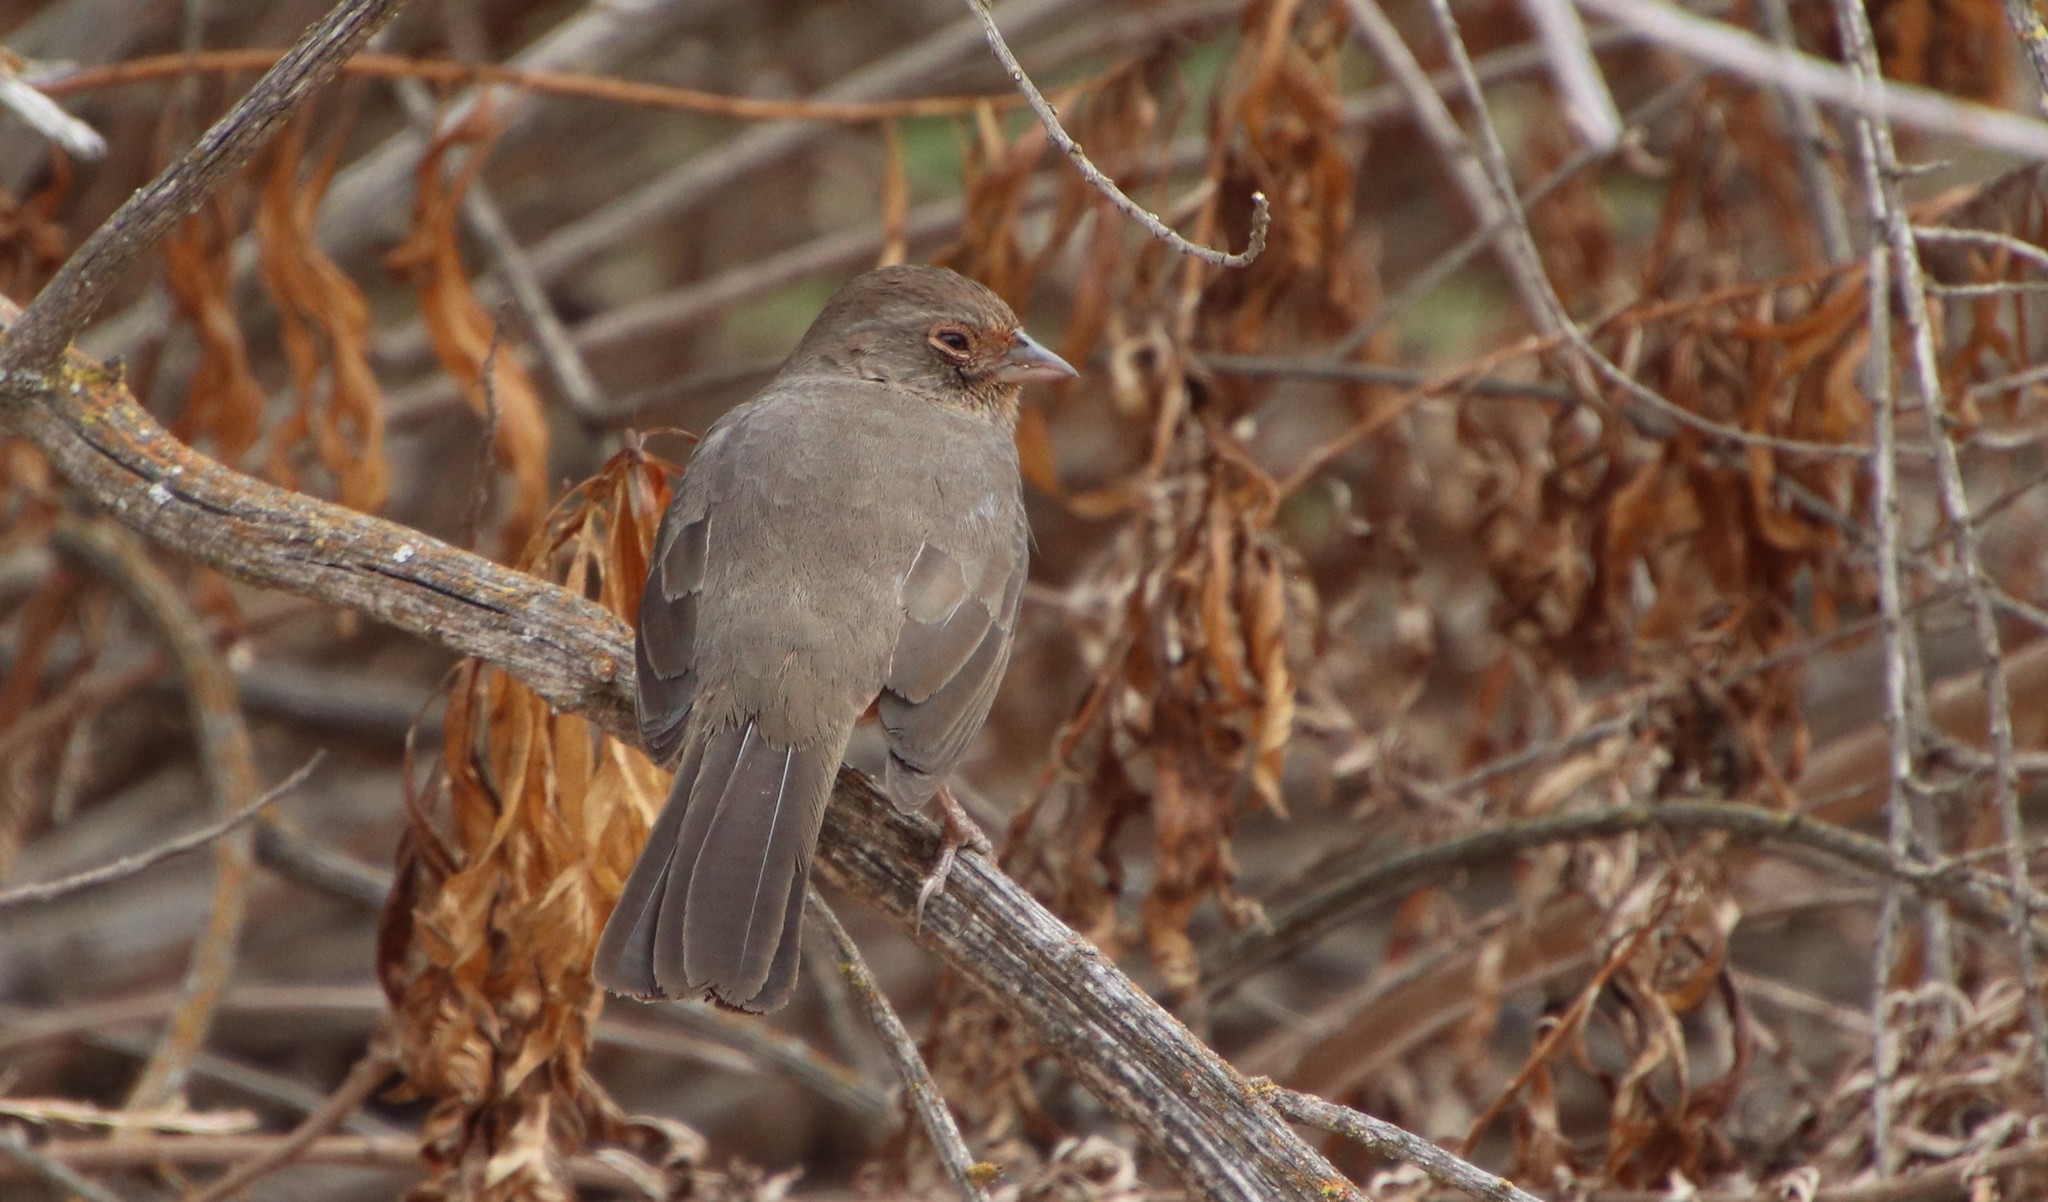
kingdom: Animalia
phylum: Chordata
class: Aves
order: Passeriformes
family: Passerellidae
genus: Melozone
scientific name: Melozone crissalis
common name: California towhee
